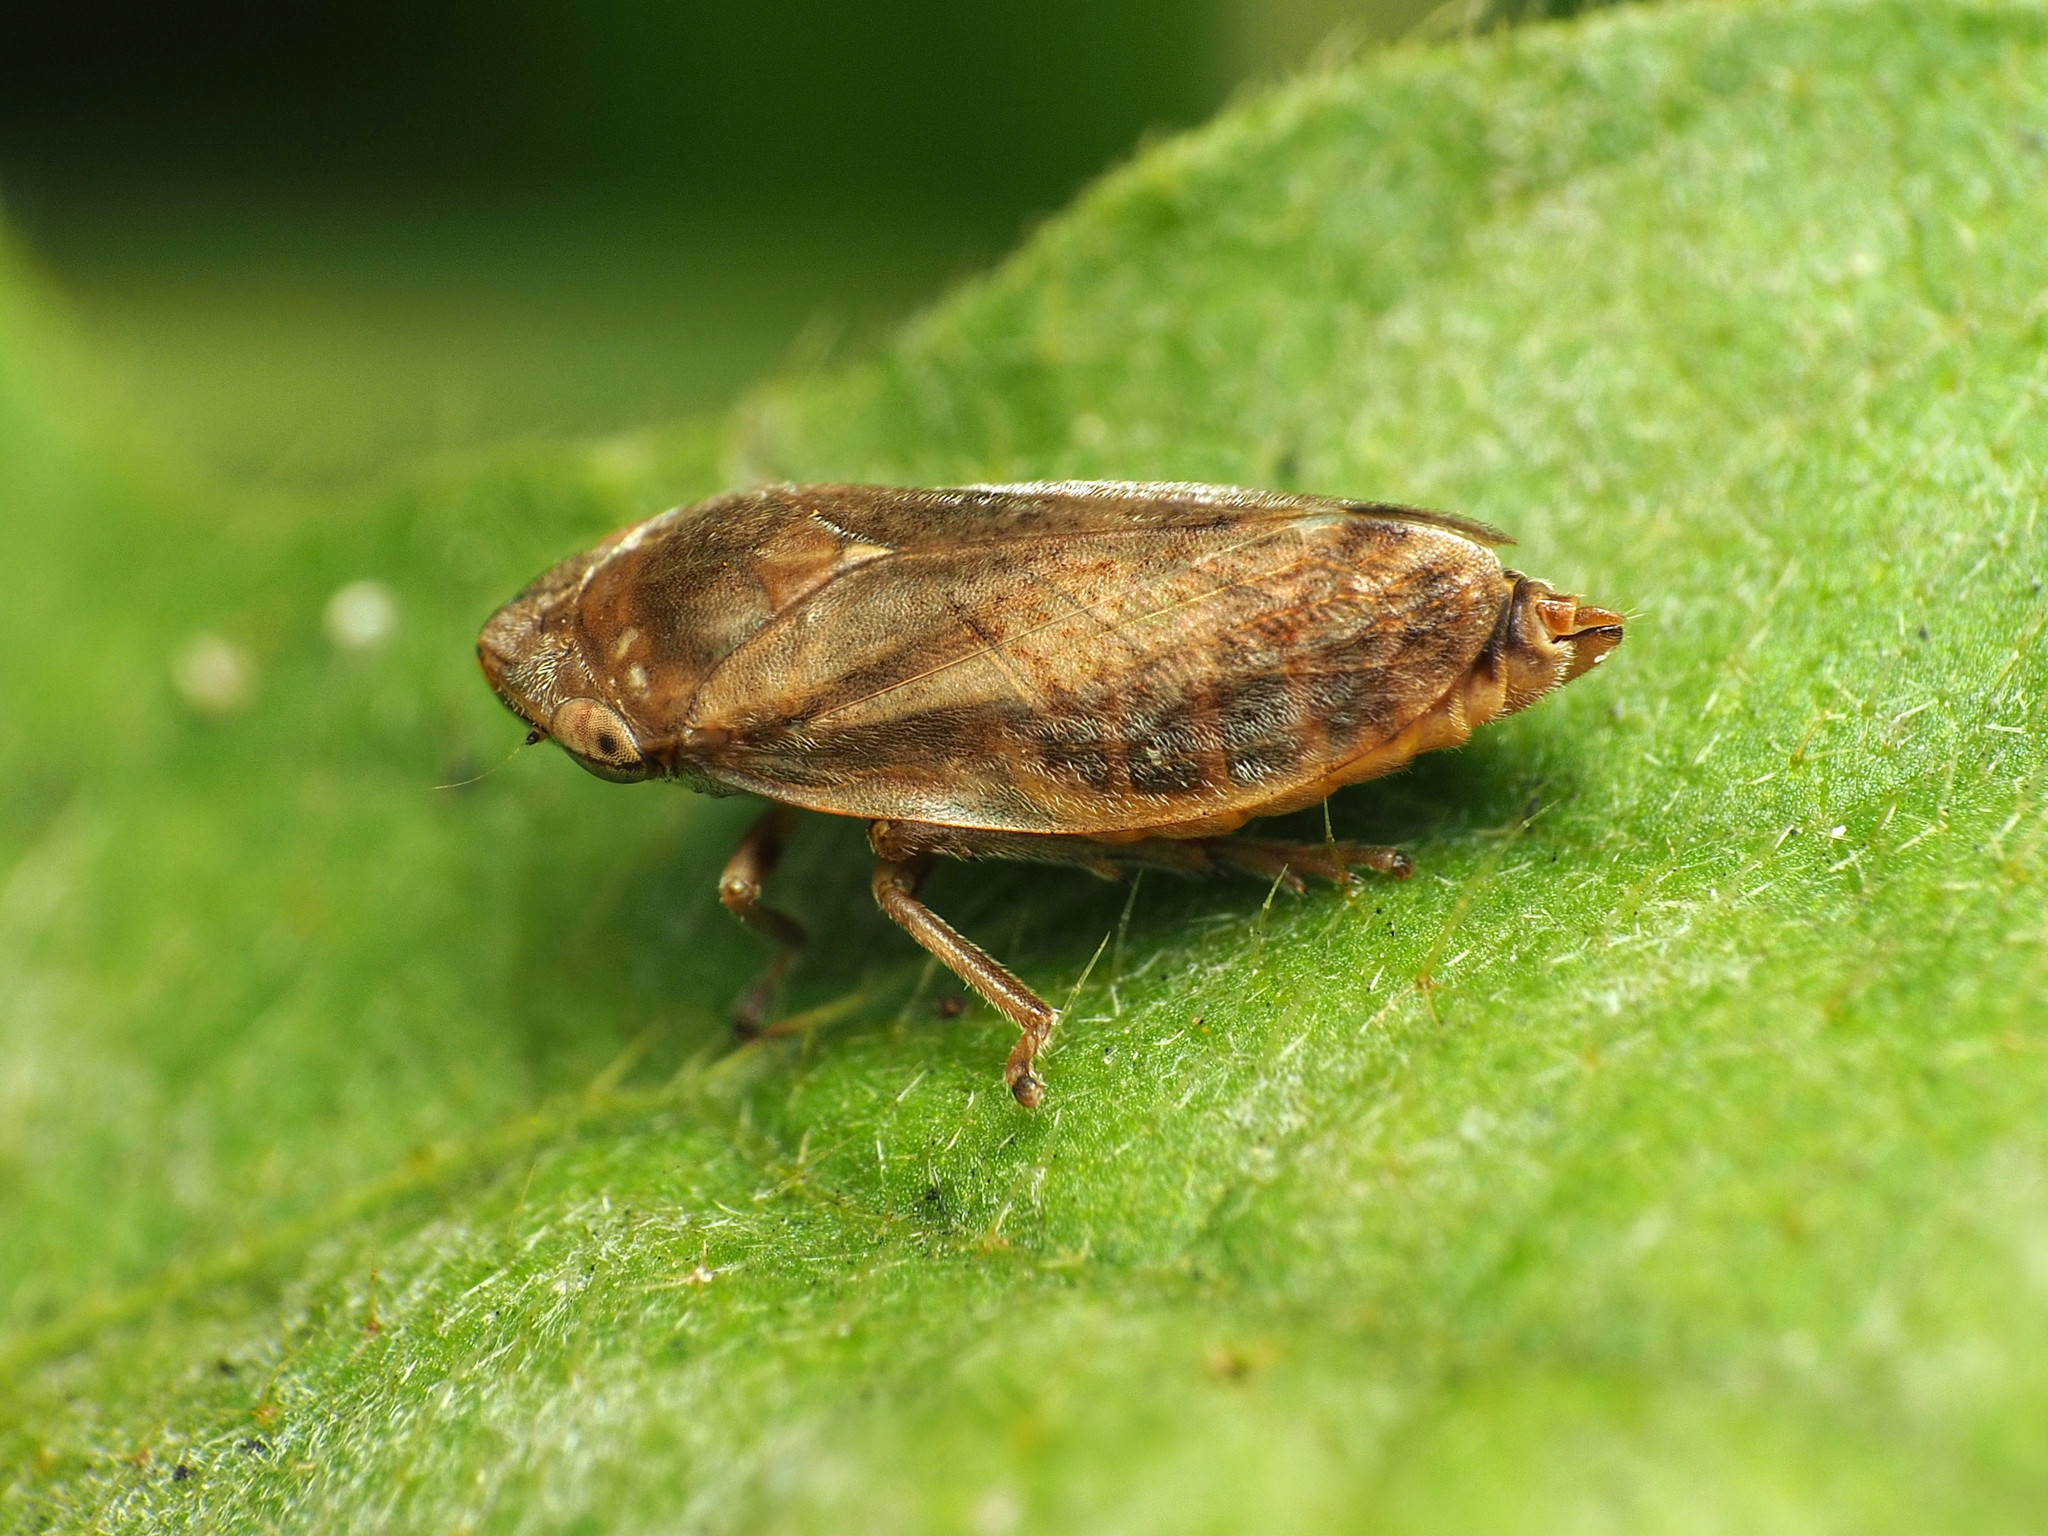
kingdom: Animalia
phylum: Arthropoda
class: Insecta
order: Hemiptera
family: Aphrophoridae
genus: Philaenus
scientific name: Philaenus spumarius
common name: Meadow spittlebug
